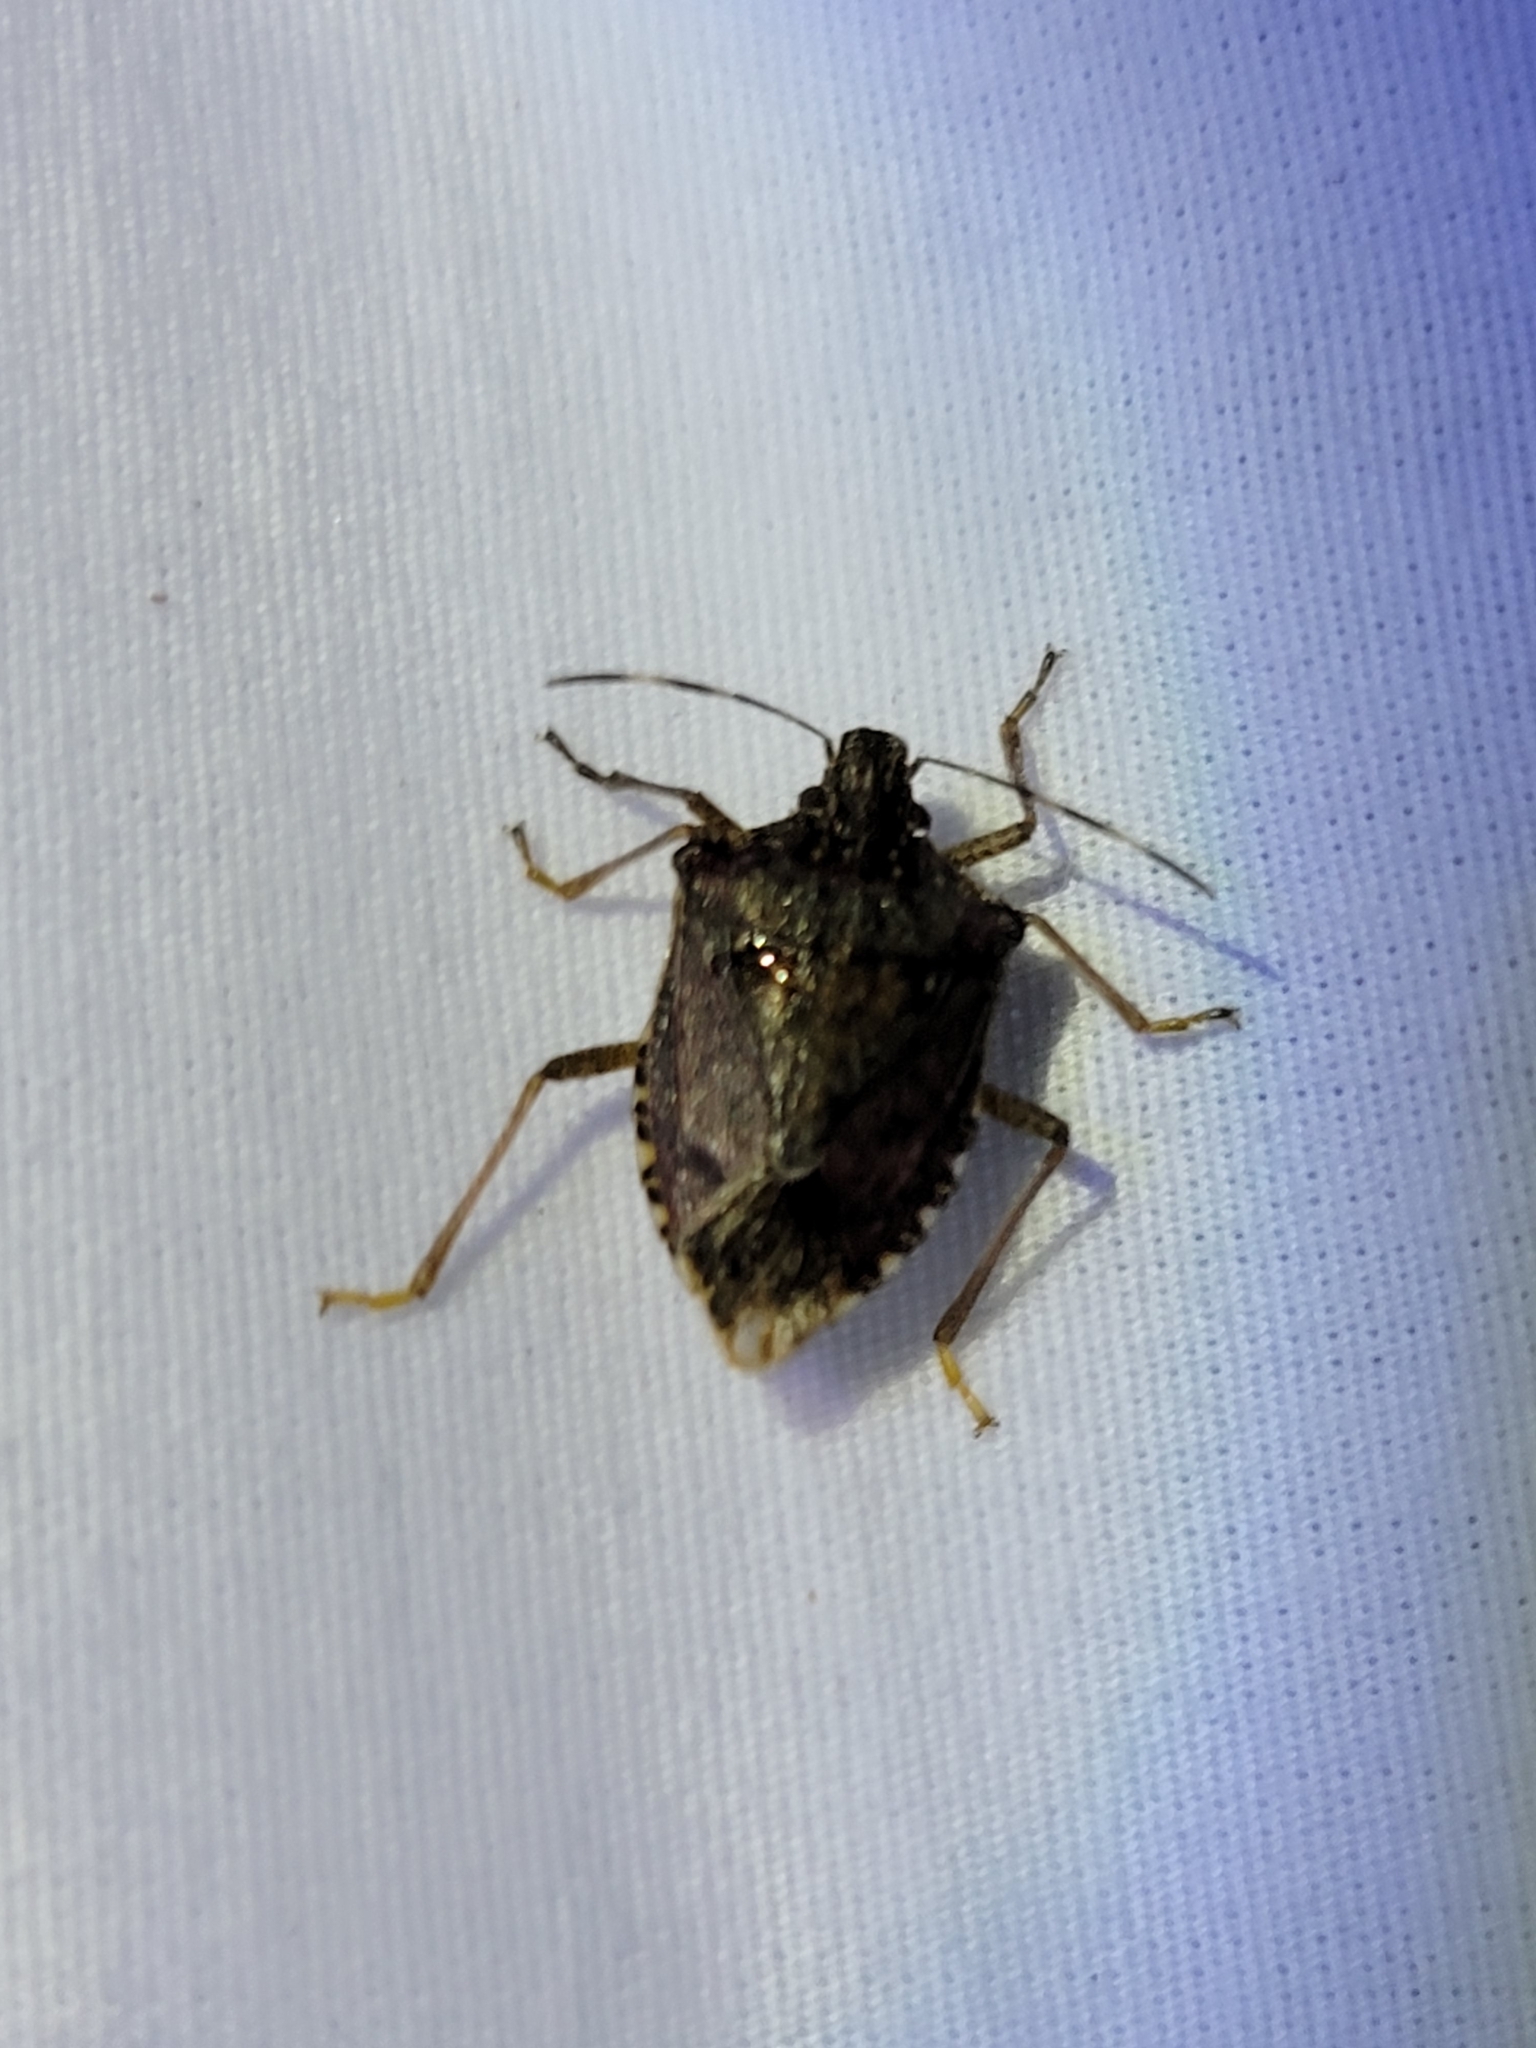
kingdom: Animalia
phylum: Arthropoda
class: Insecta
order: Hemiptera
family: Pentatomidae
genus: Halyomorpha
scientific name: Halyomorpha halys
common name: Brown marmorated stink bug
